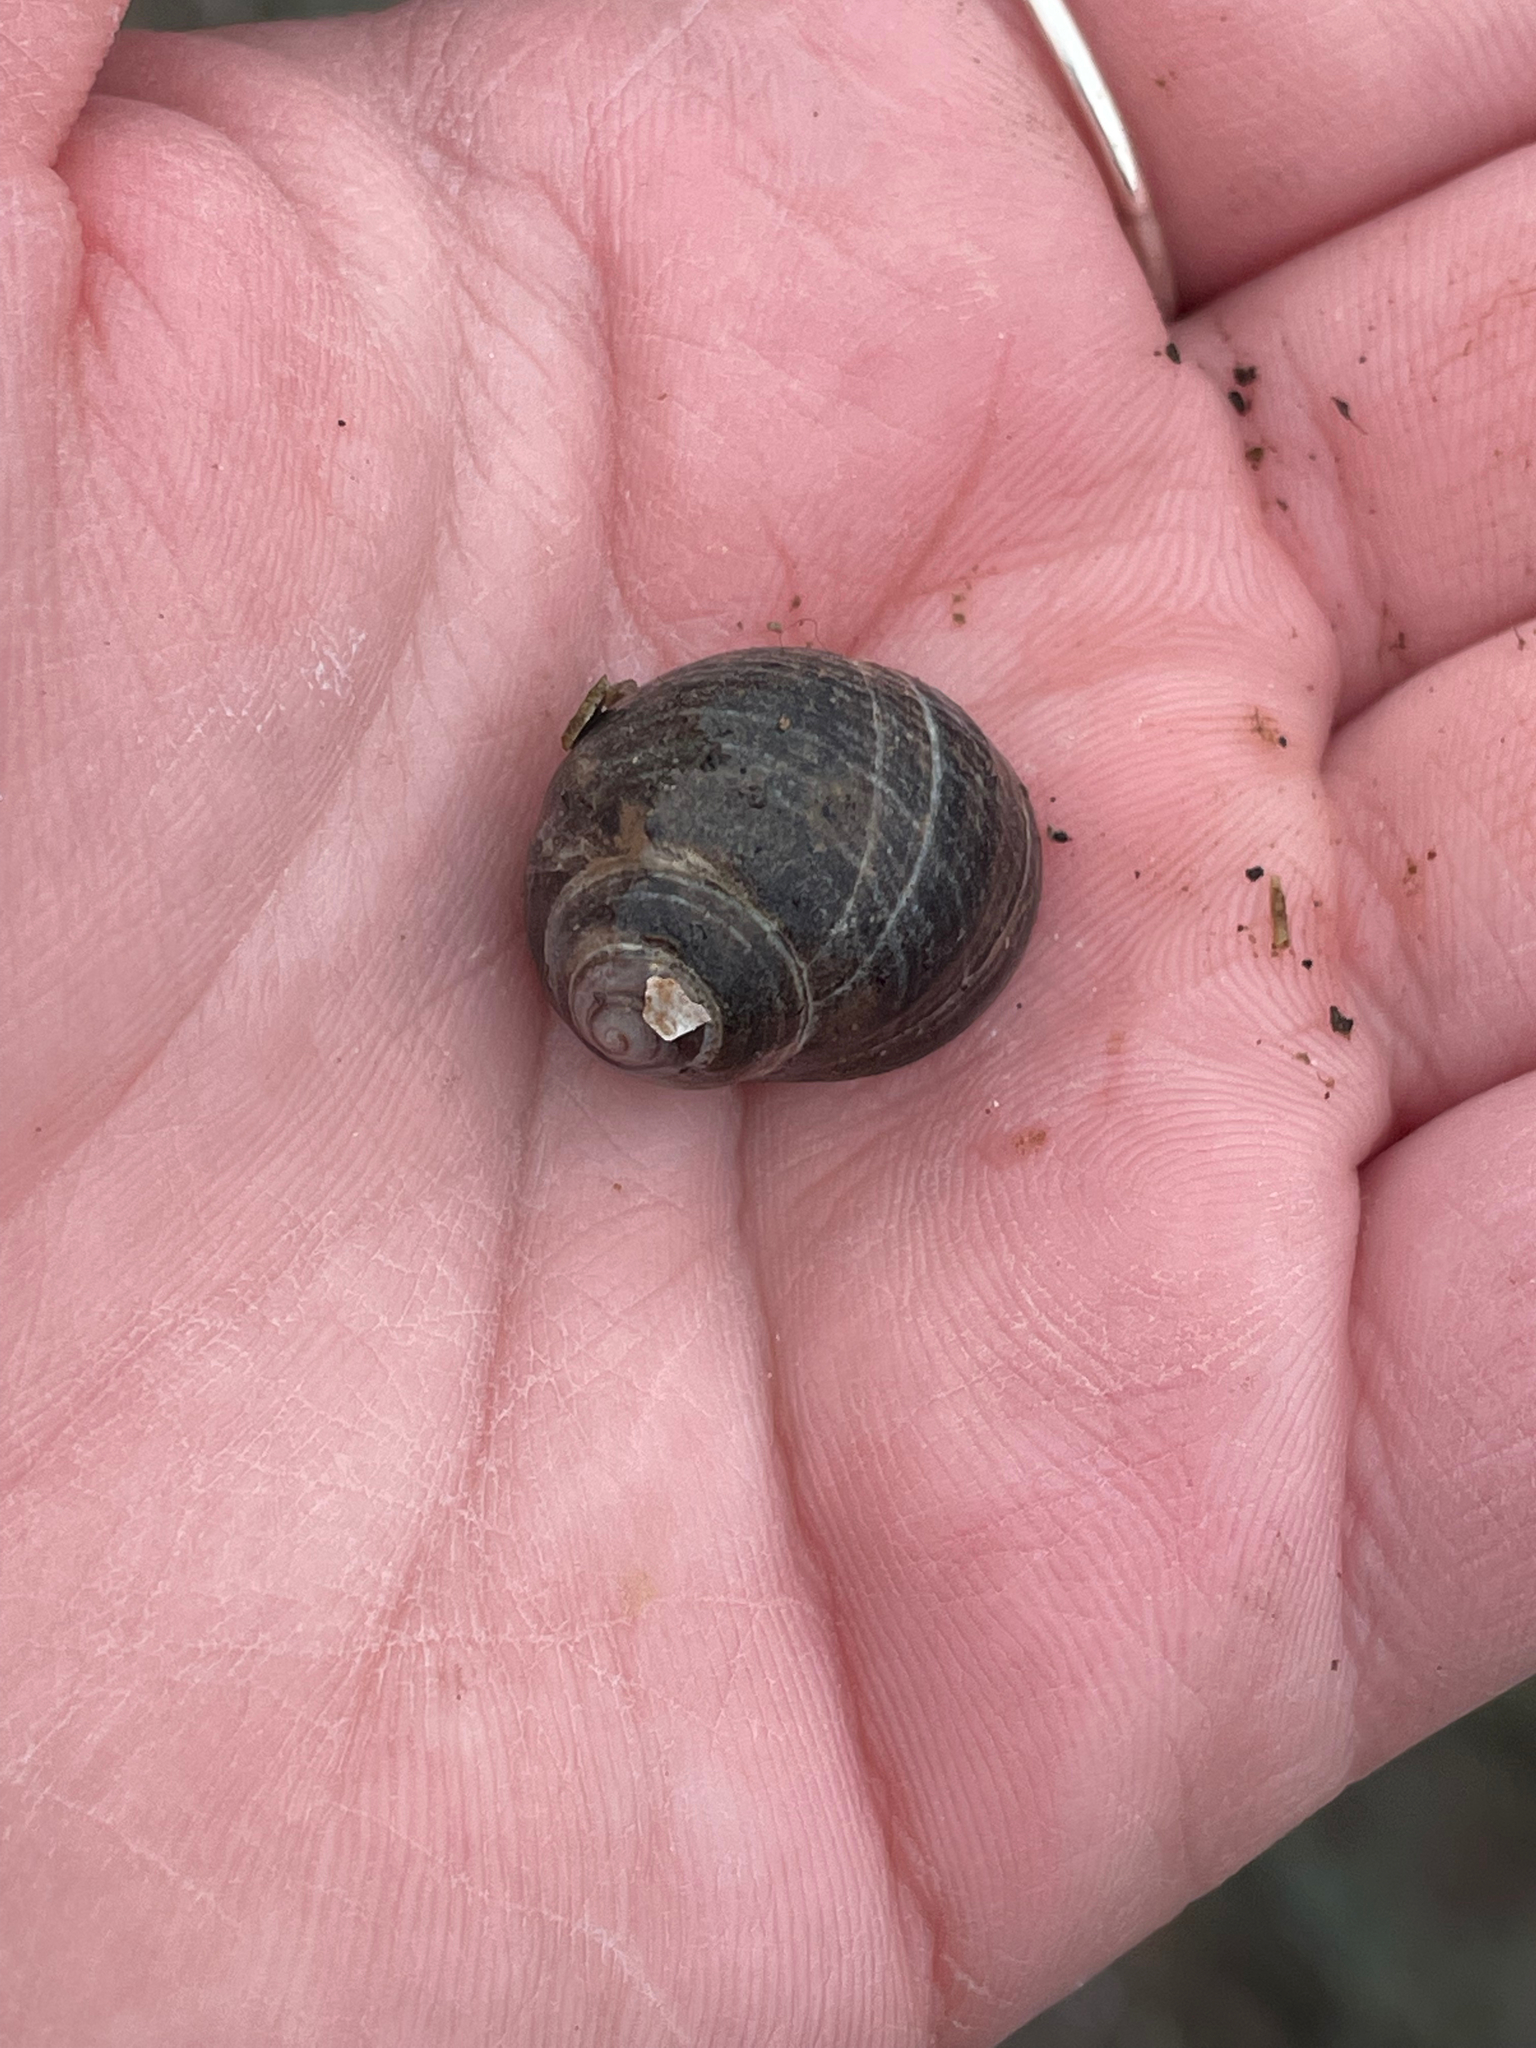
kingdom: Animalia
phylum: Mollusca
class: Gastropoda
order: Littorinimorpha
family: Littorinidae
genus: Littorina
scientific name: Littorina littorea
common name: Common periwinkle
